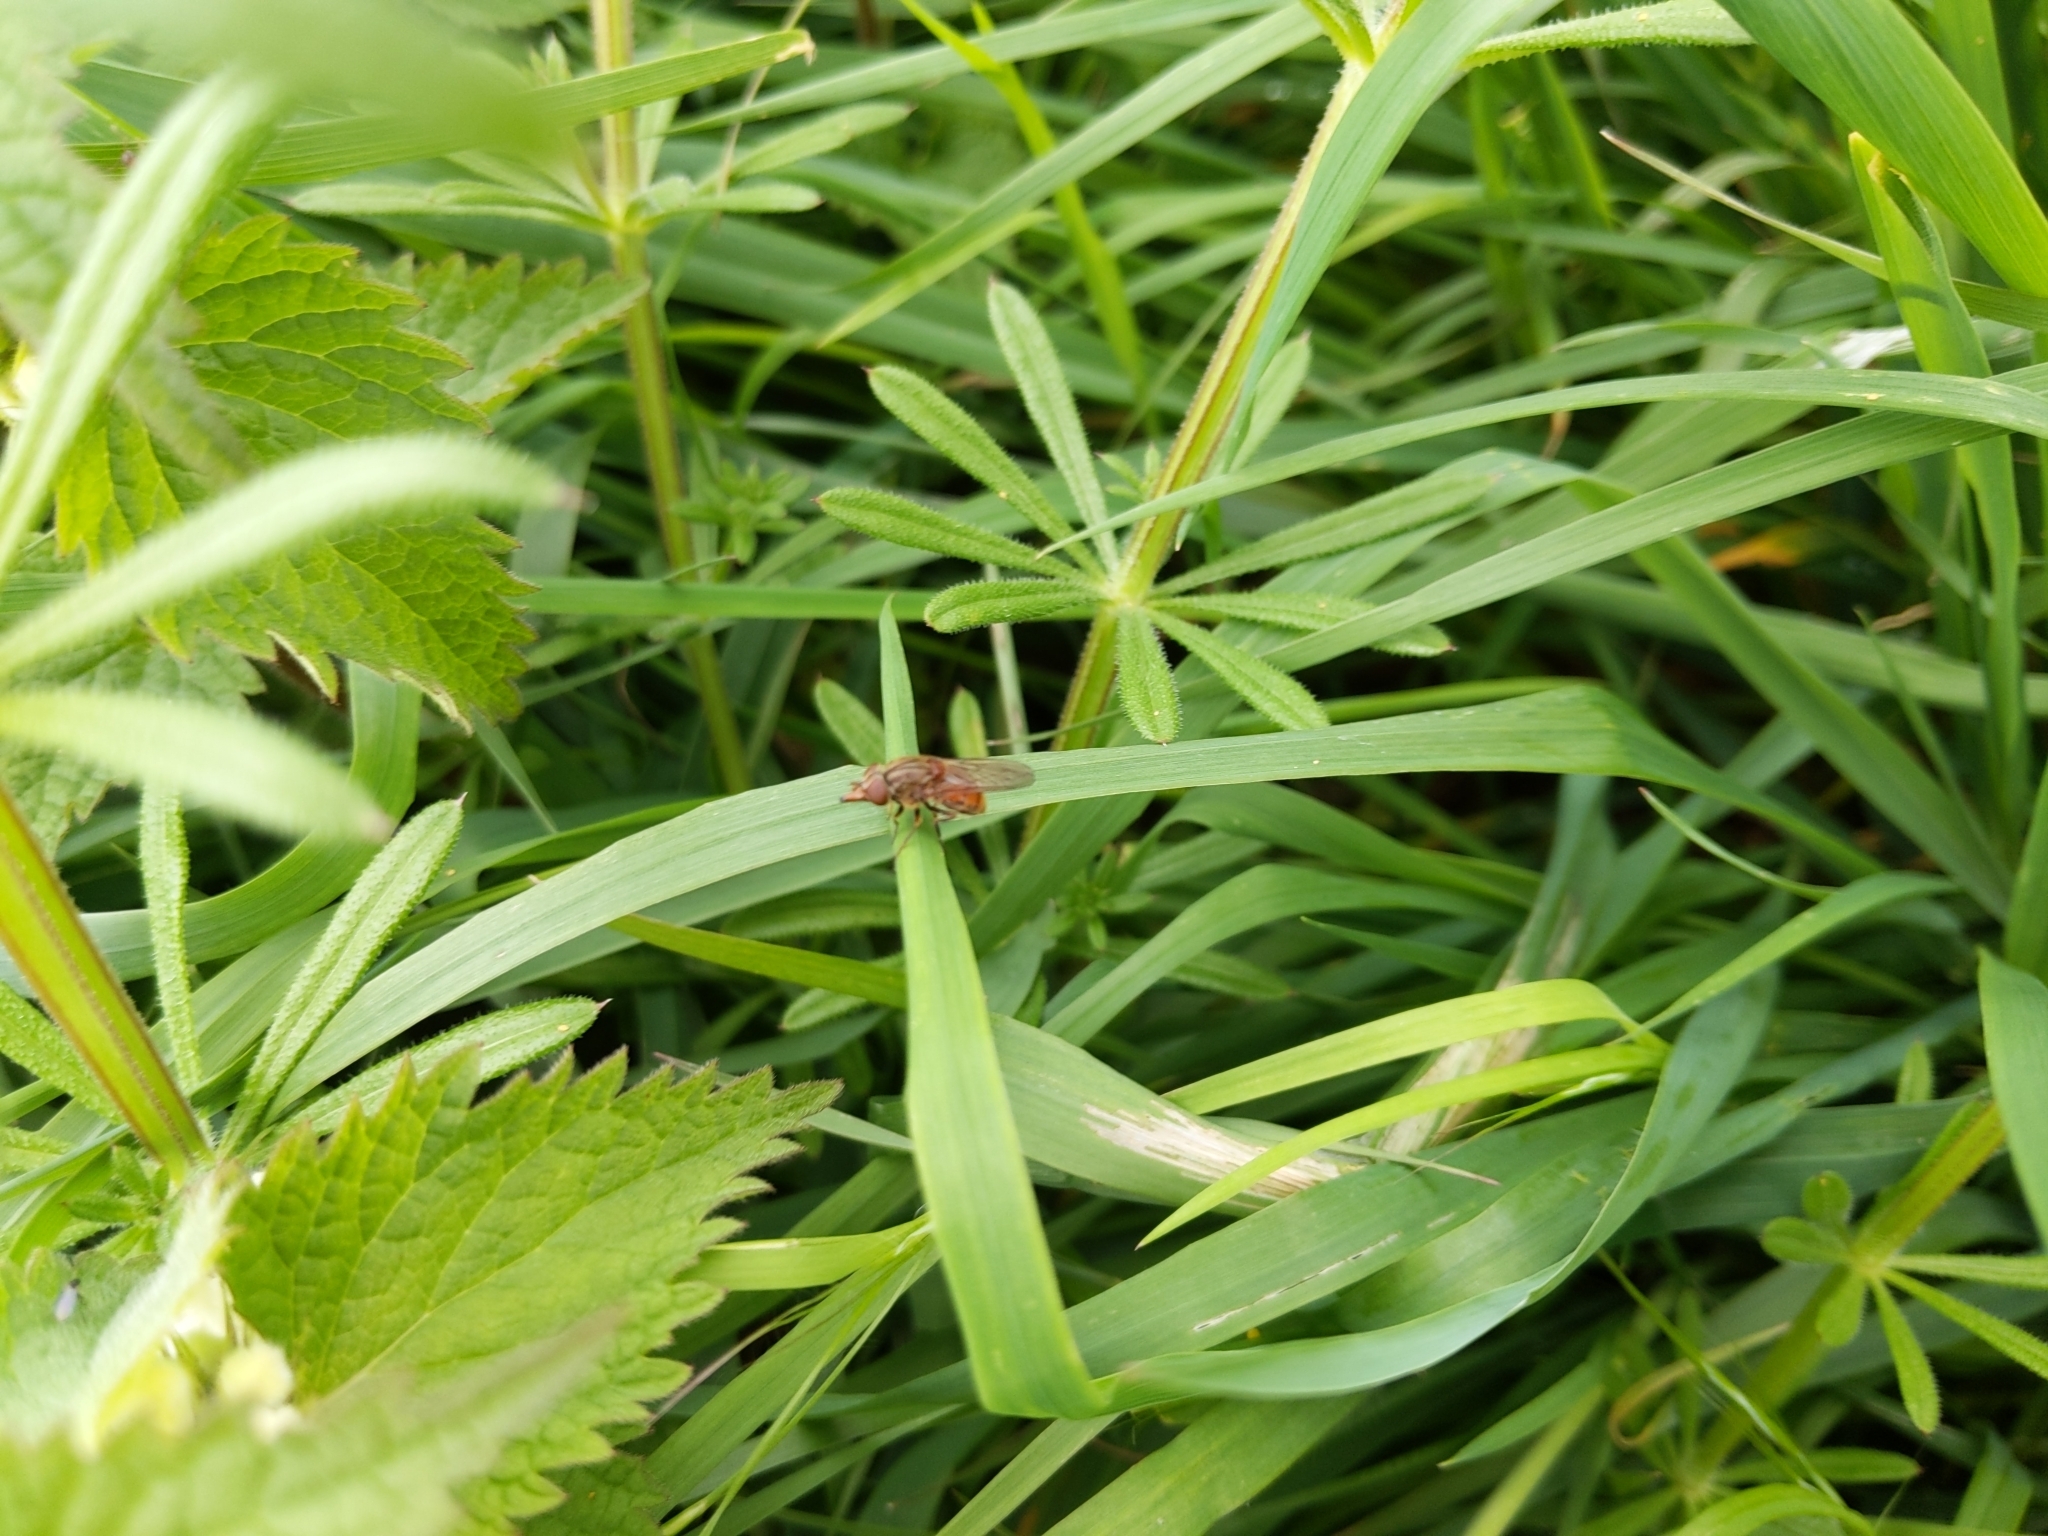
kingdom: Animalia
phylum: Arthropoda
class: Insecta
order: Diptera
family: Syrphidae
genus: Rhingia
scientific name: Rhingia campestris
